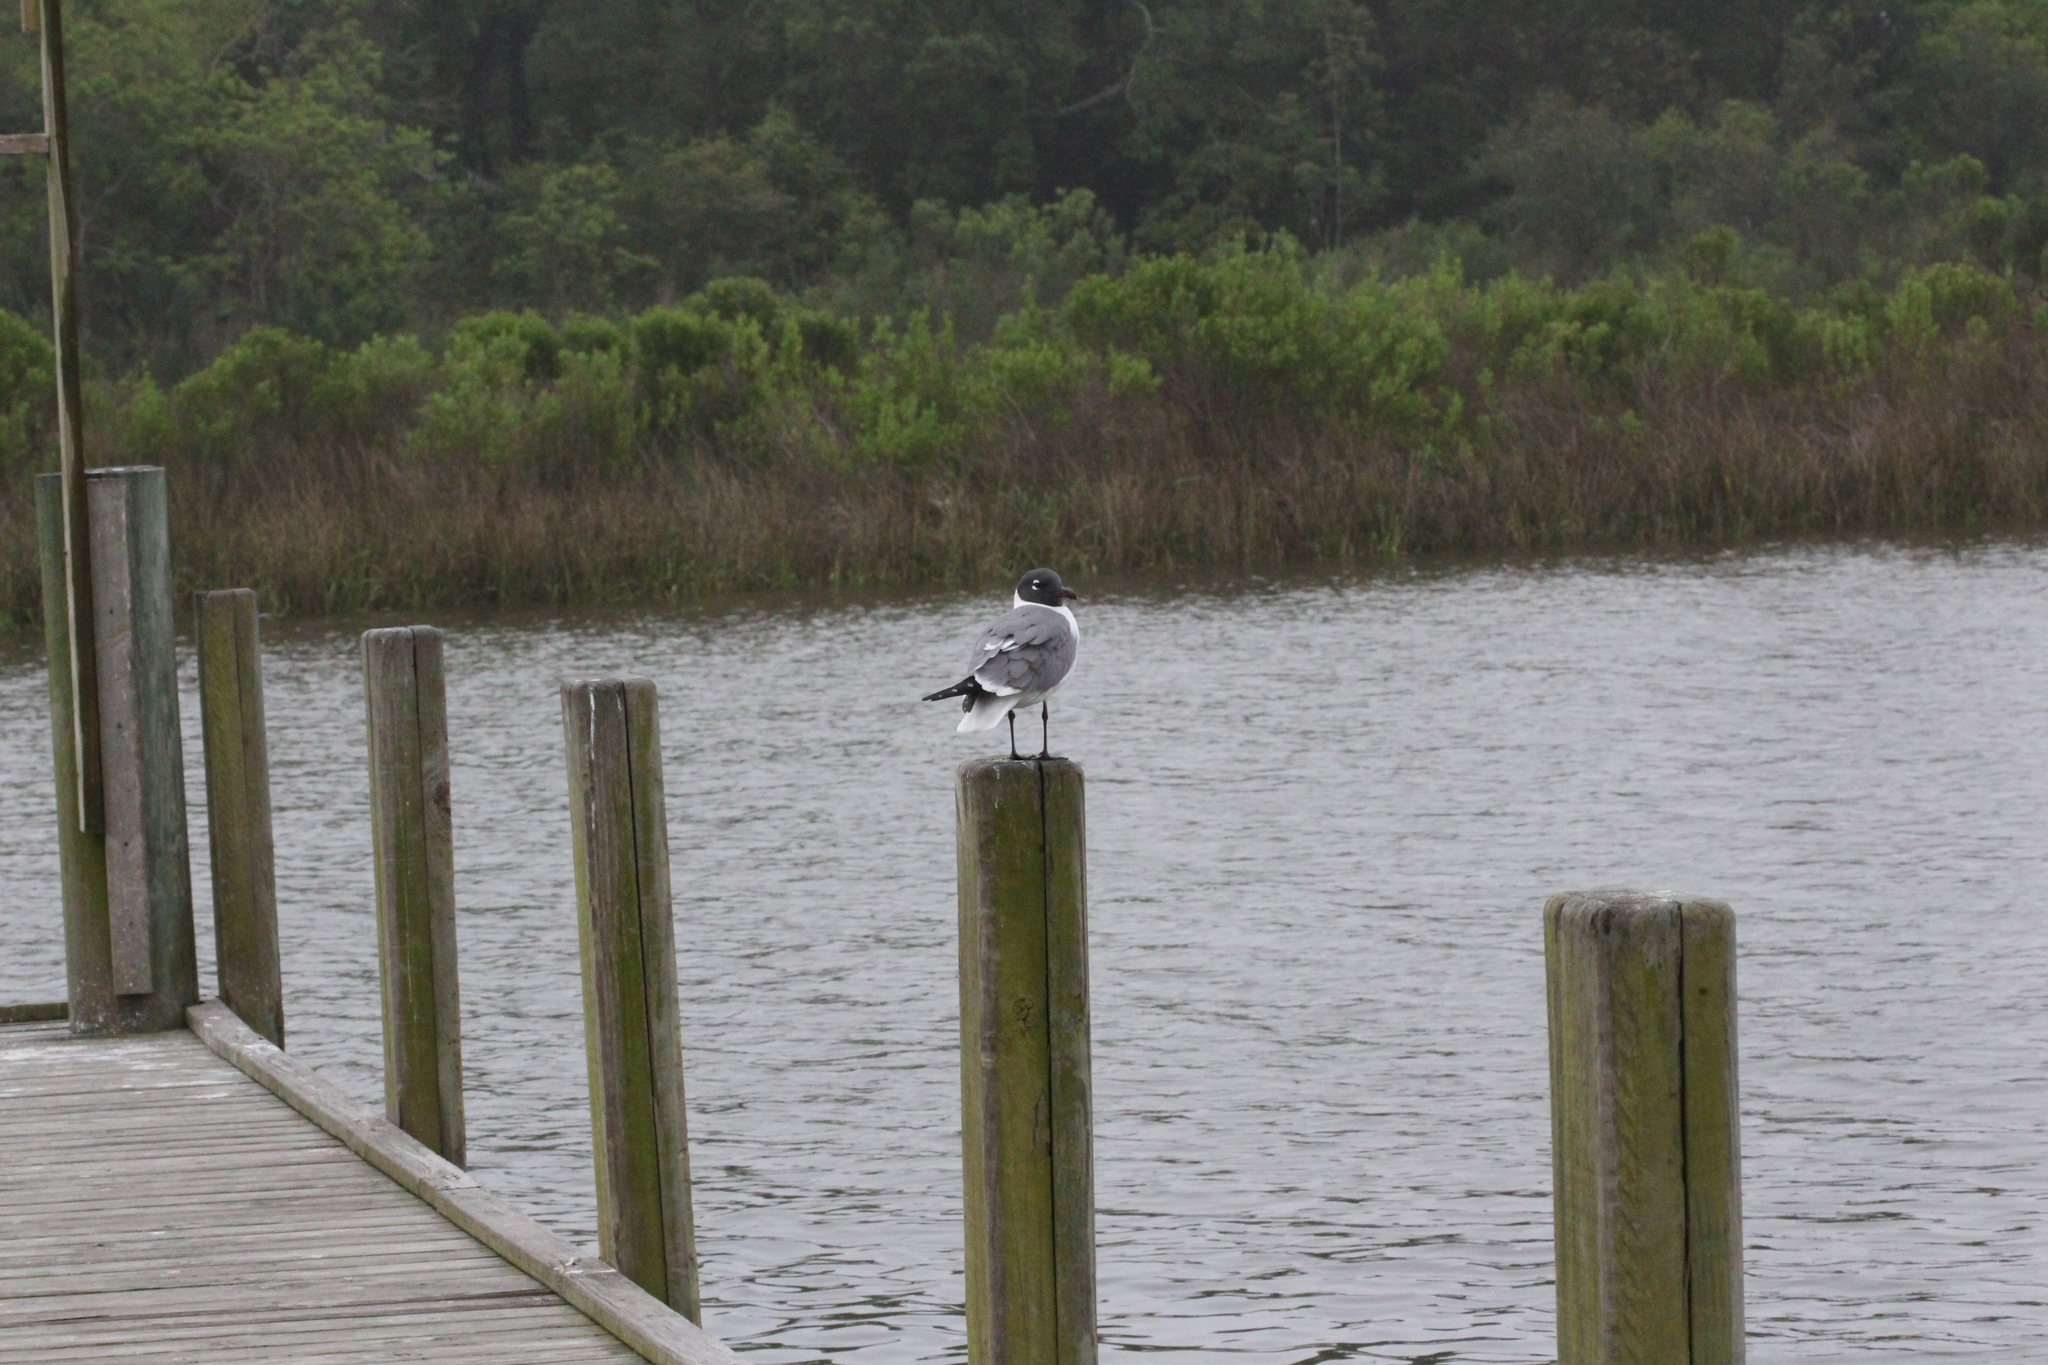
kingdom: Animalia
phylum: Chordata
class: Aves
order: Charadriiformes
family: Laridae
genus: Leucophaeus
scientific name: Leucophaeus atricilla
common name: Laughing gull
